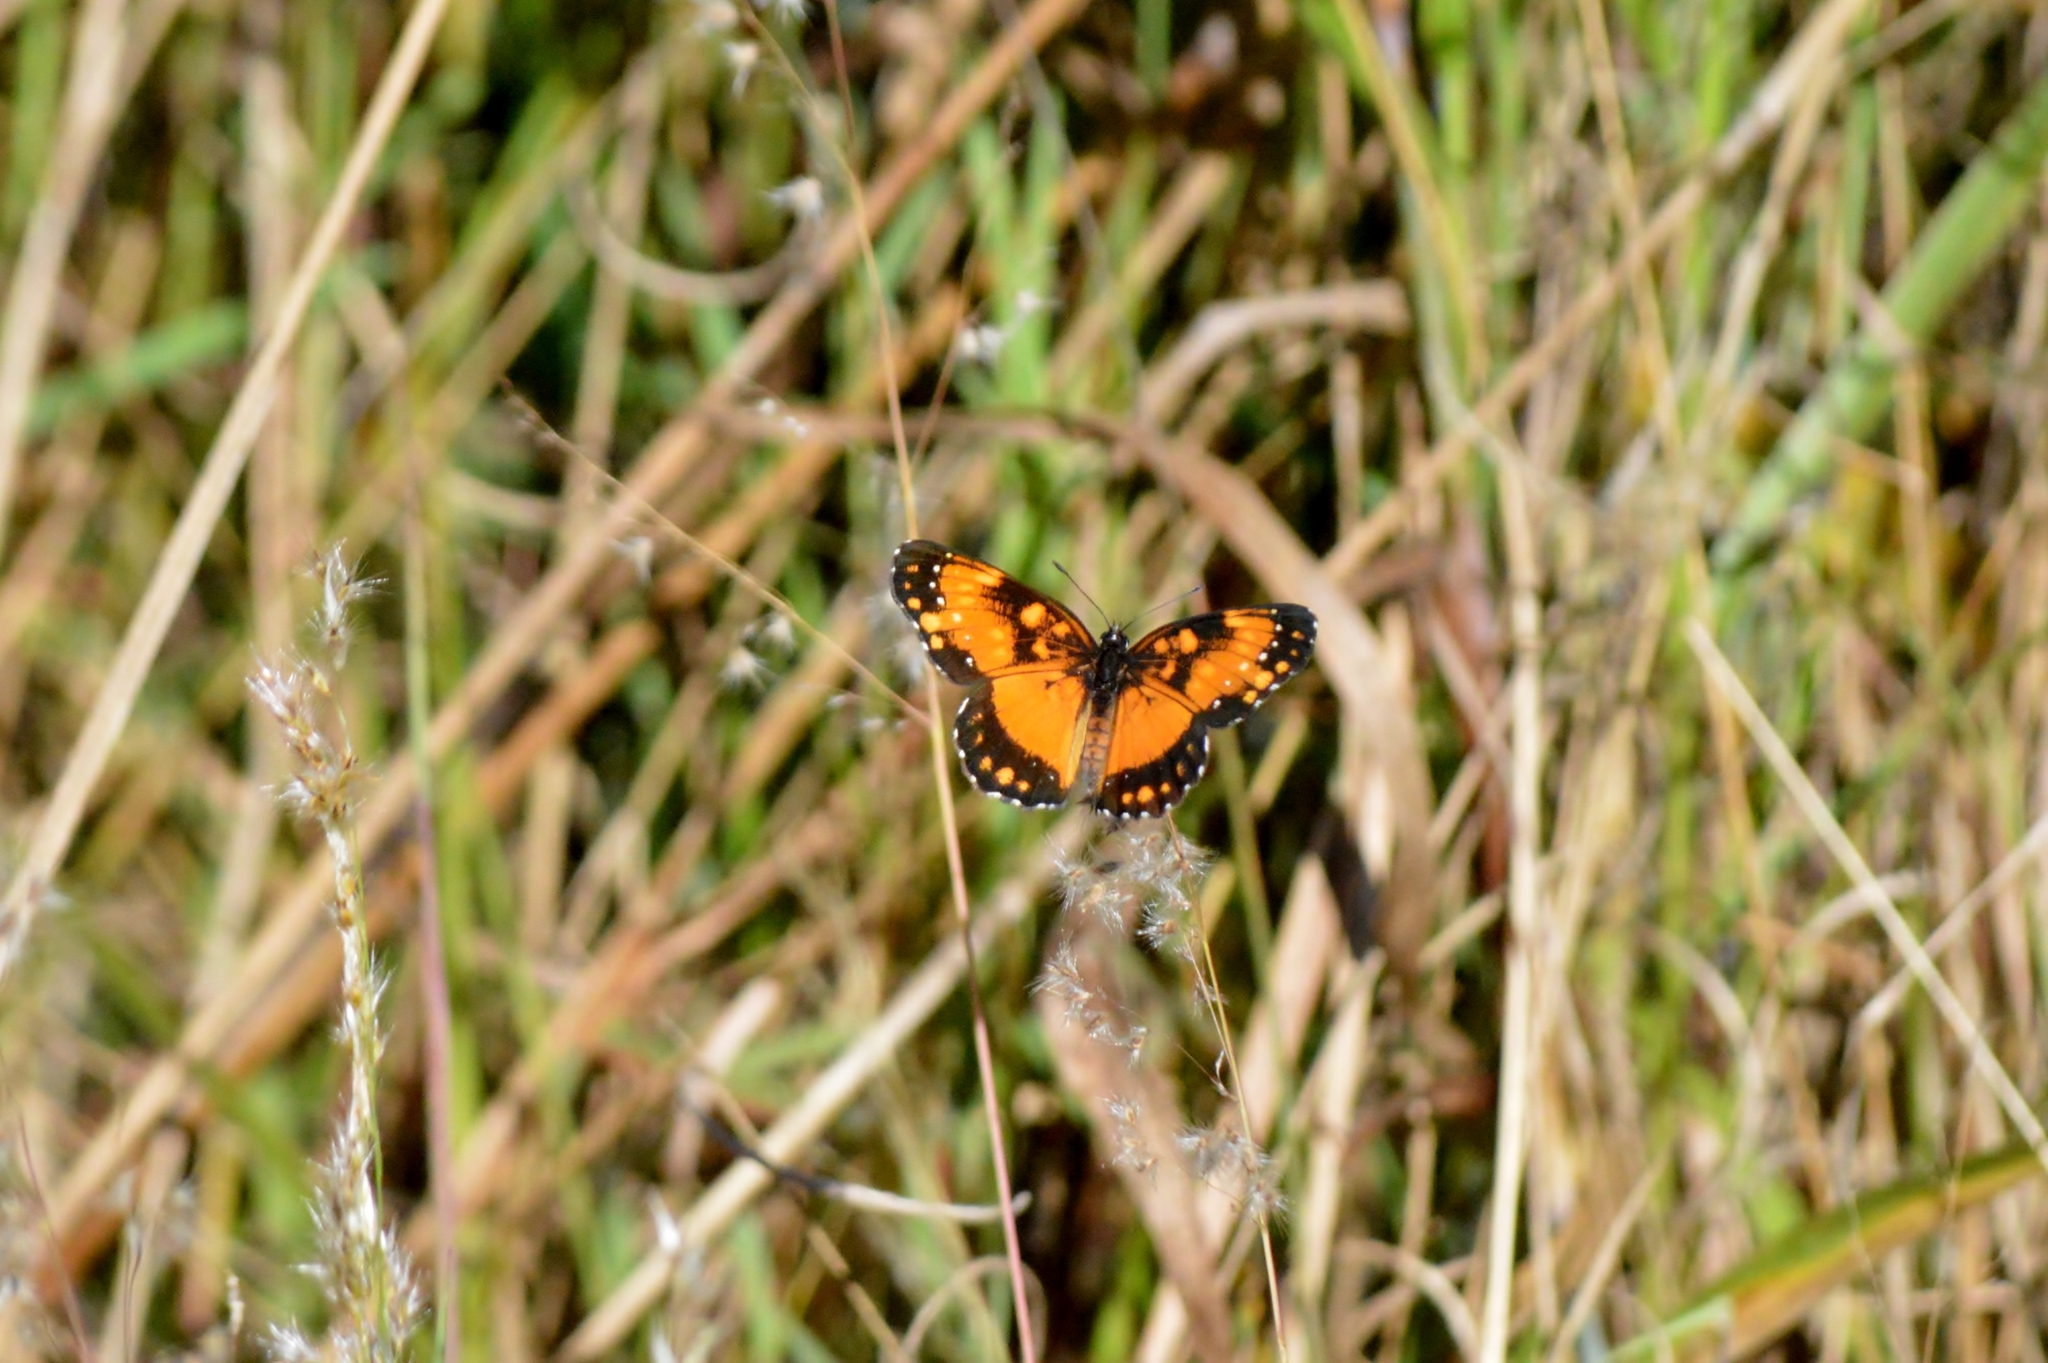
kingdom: Animalia
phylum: Arthropoda
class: Insecta
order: Lepidoptera
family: Nymphalidae
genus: Chlosyne
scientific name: Chlosyne lacinia
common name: Bordered patch
